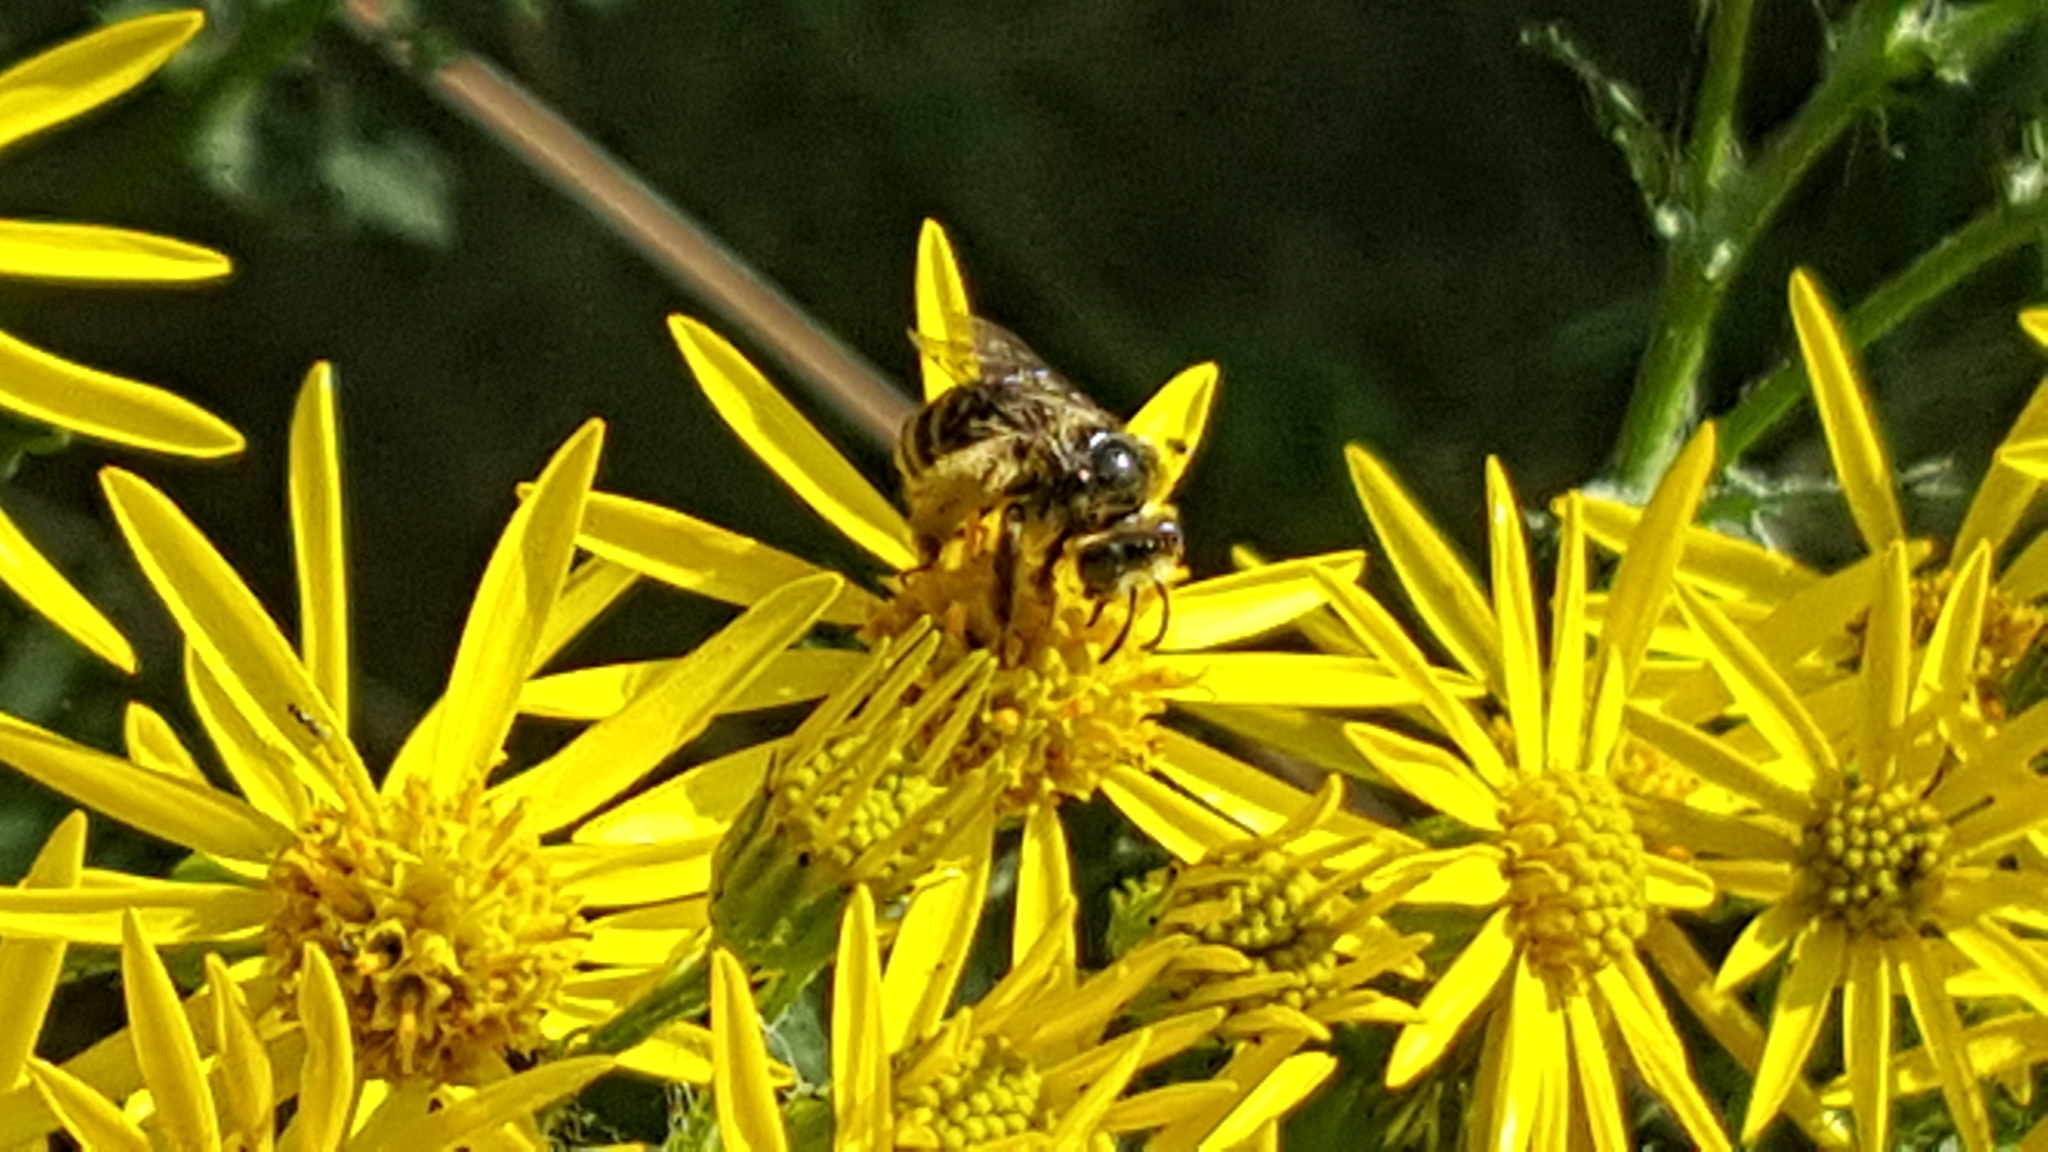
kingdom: Animalia
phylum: Arthropoda
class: Insecta
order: Hymenoptera
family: Apidae
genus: Apis
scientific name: Apis mellifera
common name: Honey bee
